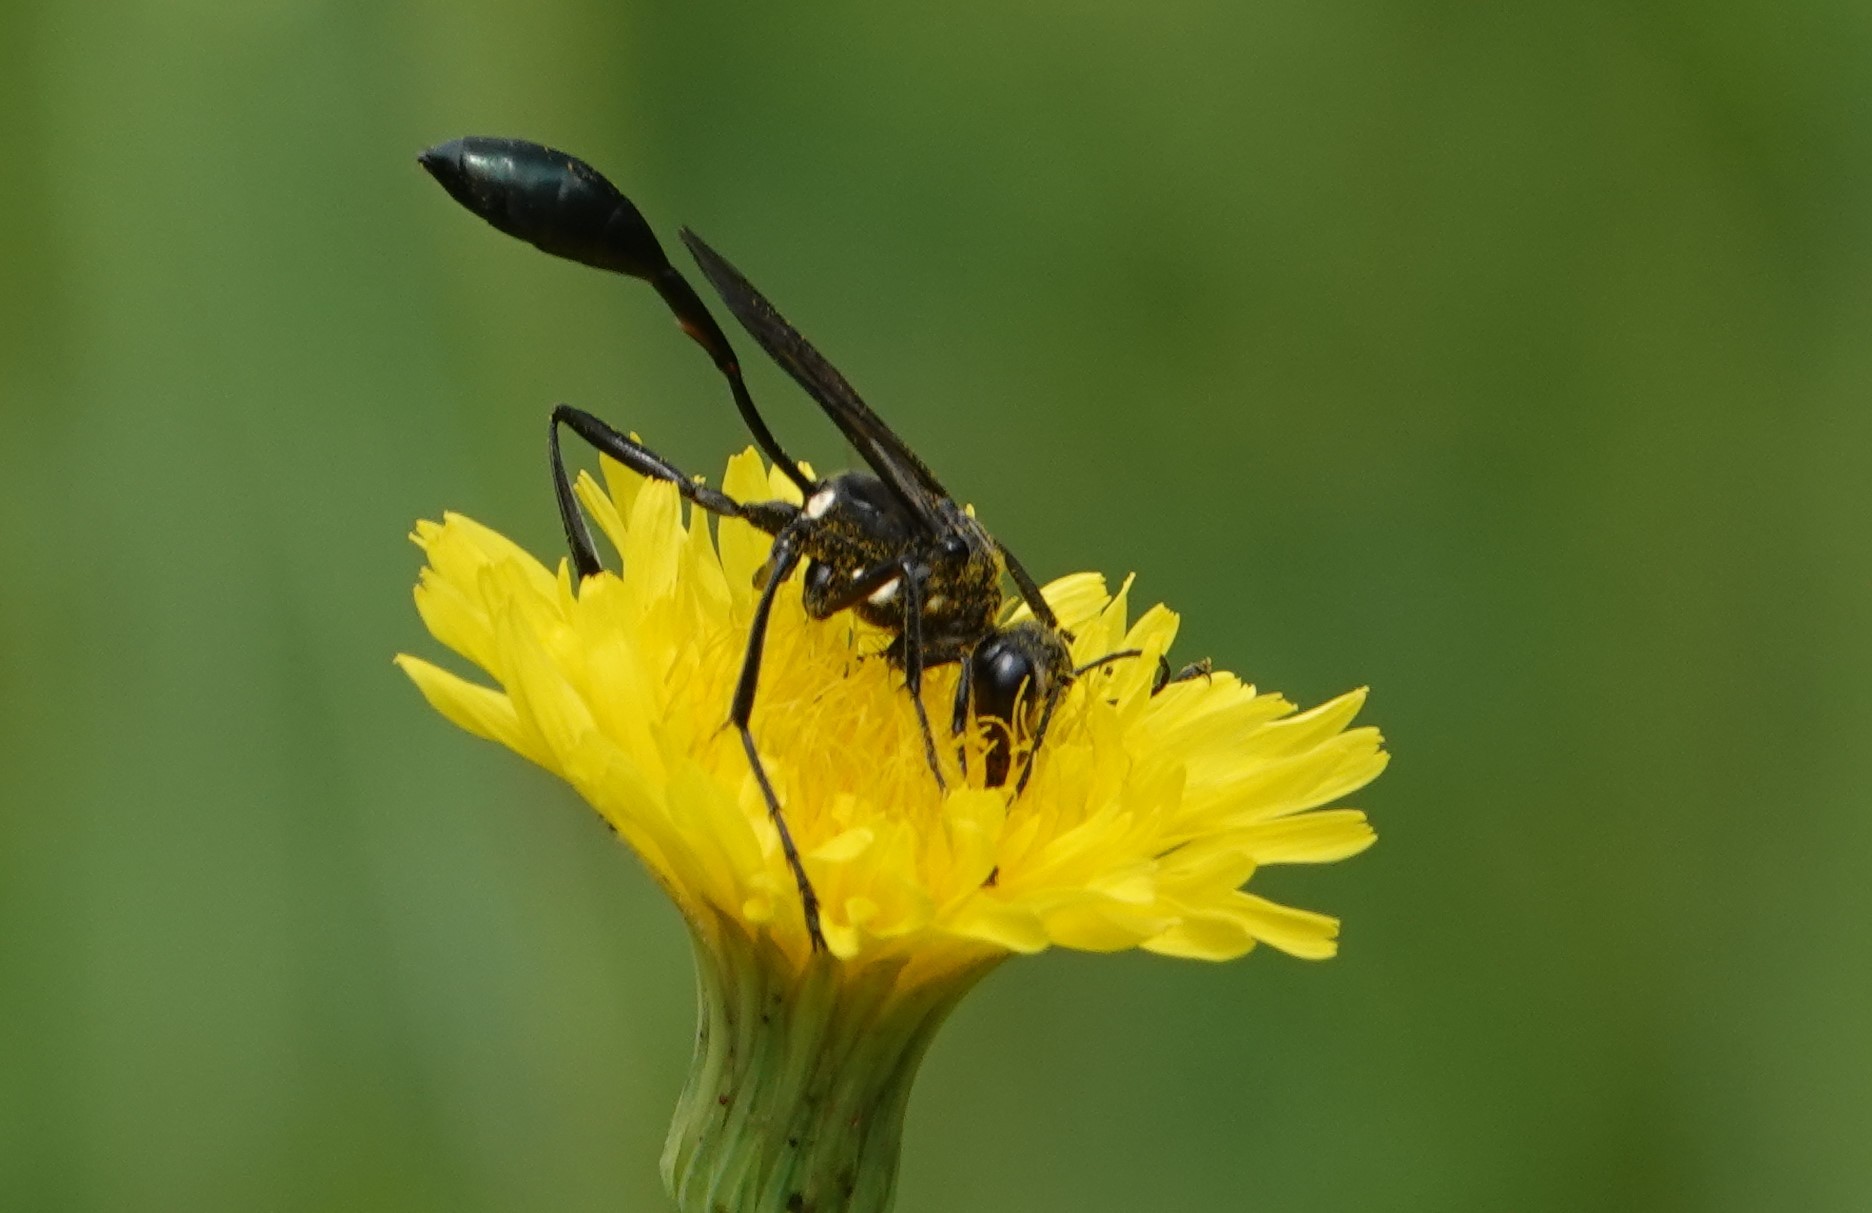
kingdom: Animalia
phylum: Arthropoda
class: Insecta
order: Hymenoptera
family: Sphecidae
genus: Eremnophila
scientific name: Eremnophila aureonotata
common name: Gold-marked thread-waisted wasp
